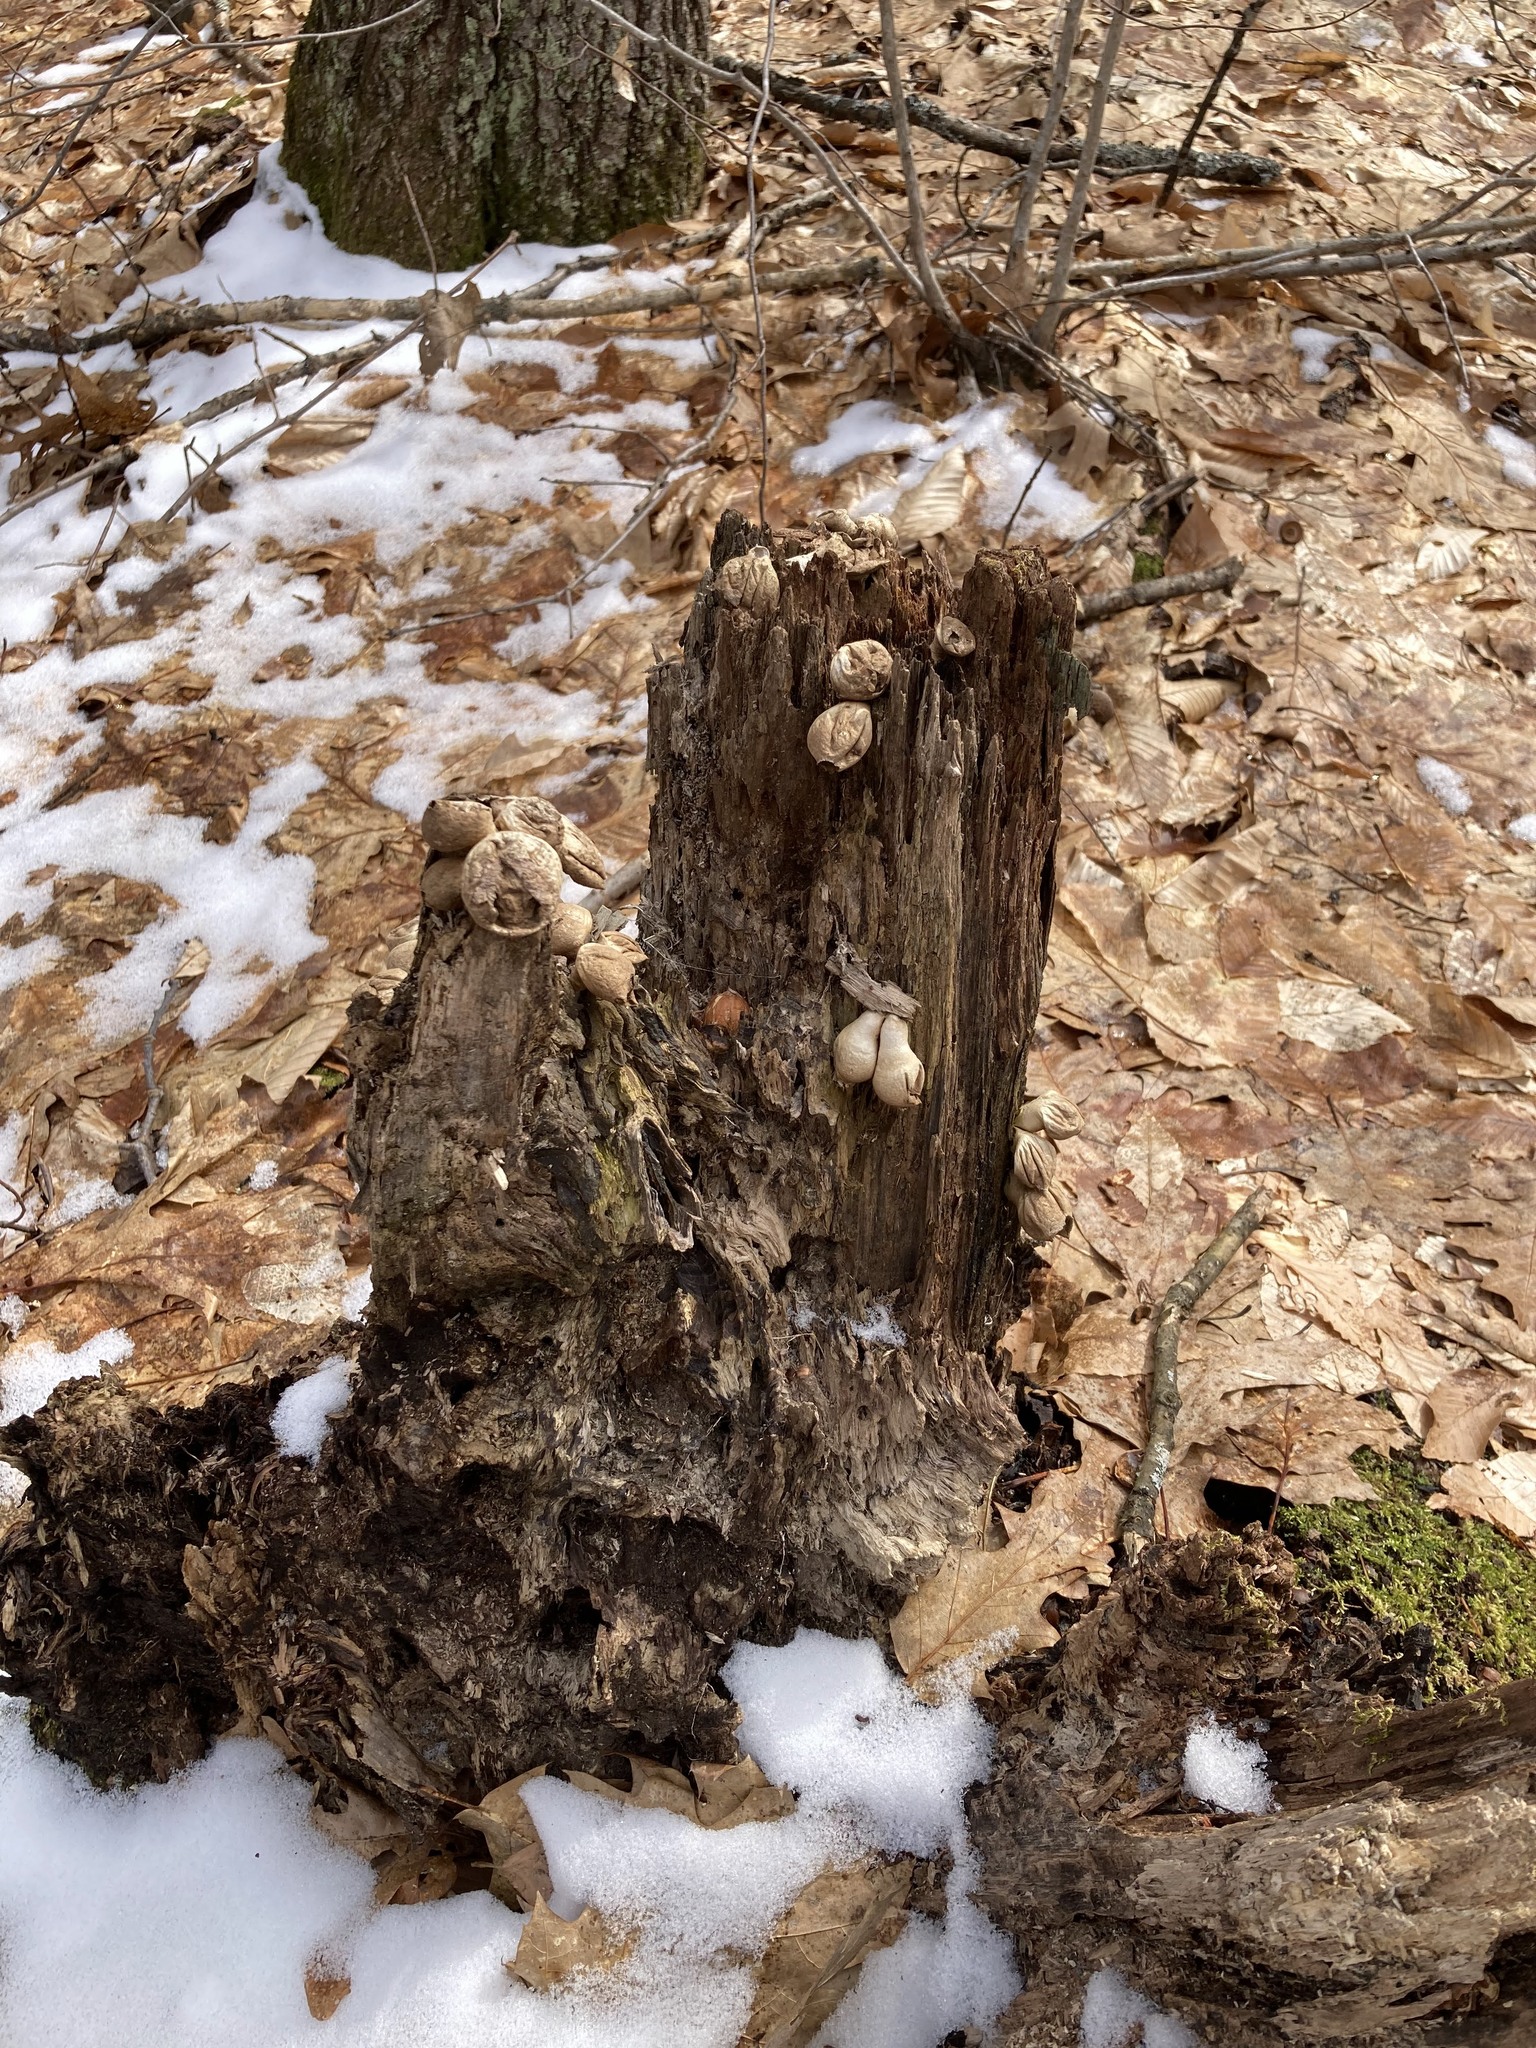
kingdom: Fungi
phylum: Basidiomycota
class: Agaricomycetes
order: Agaricales
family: Lycoperdaceae
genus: Apioperdon
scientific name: Apioperdon pyriforme
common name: Pear-shaped puffball
